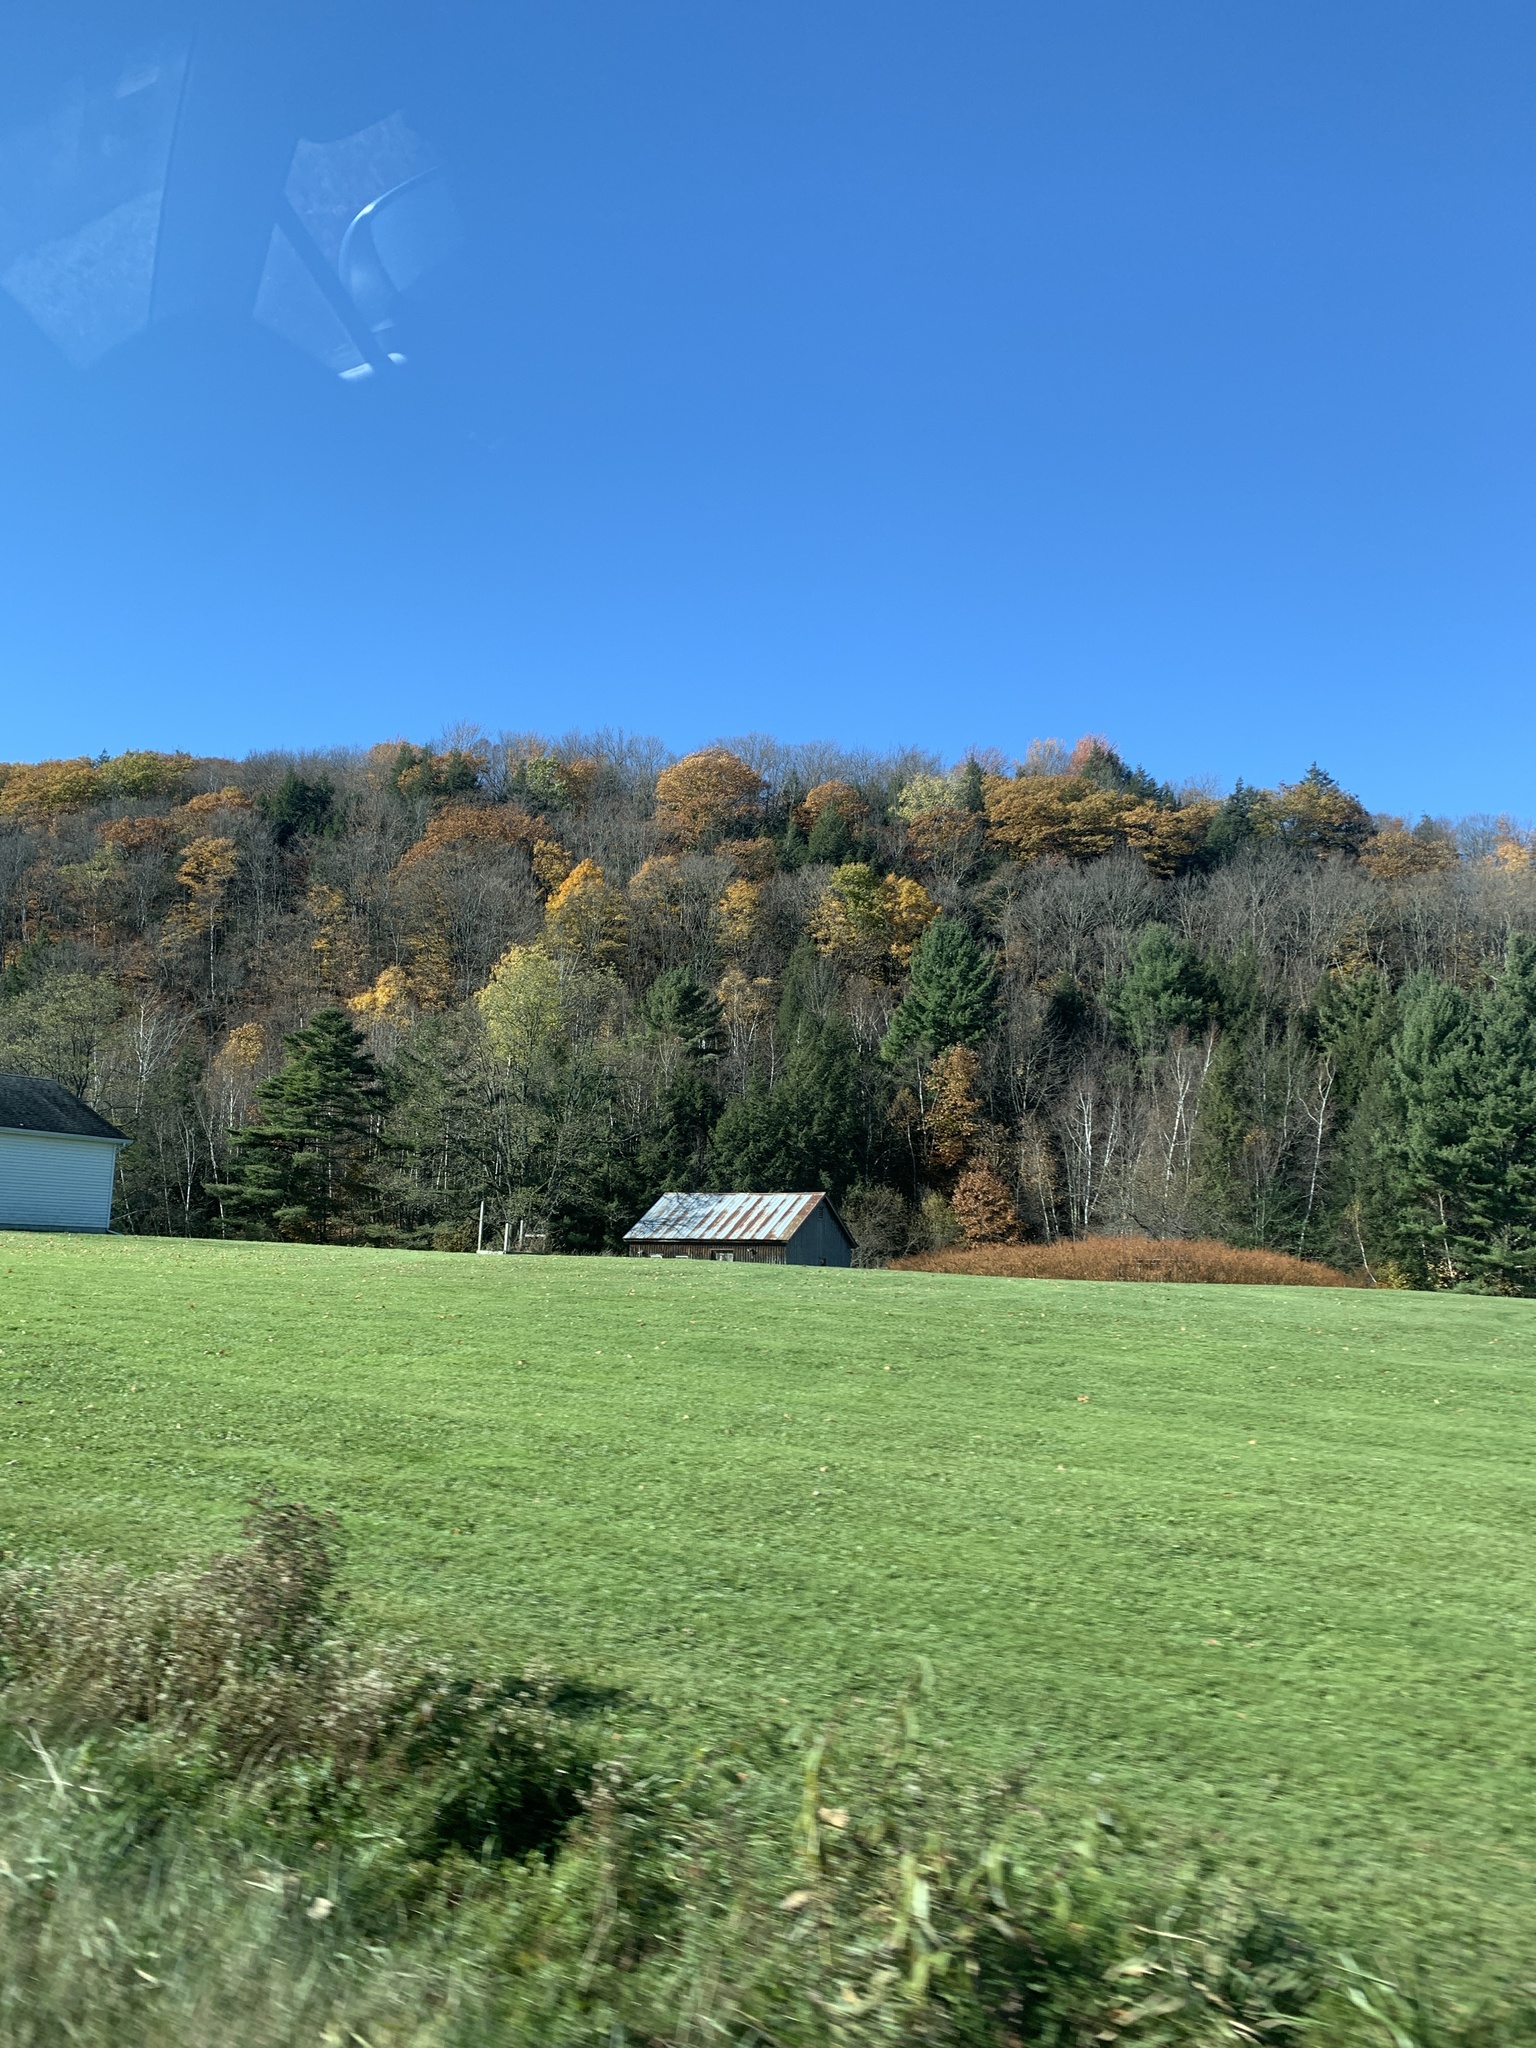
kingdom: Plantae
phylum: Tracheophyta
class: Magnoliopsida
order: Fagales
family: Fagaceae
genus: Quercus
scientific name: Quercus rubra
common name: Red oak
